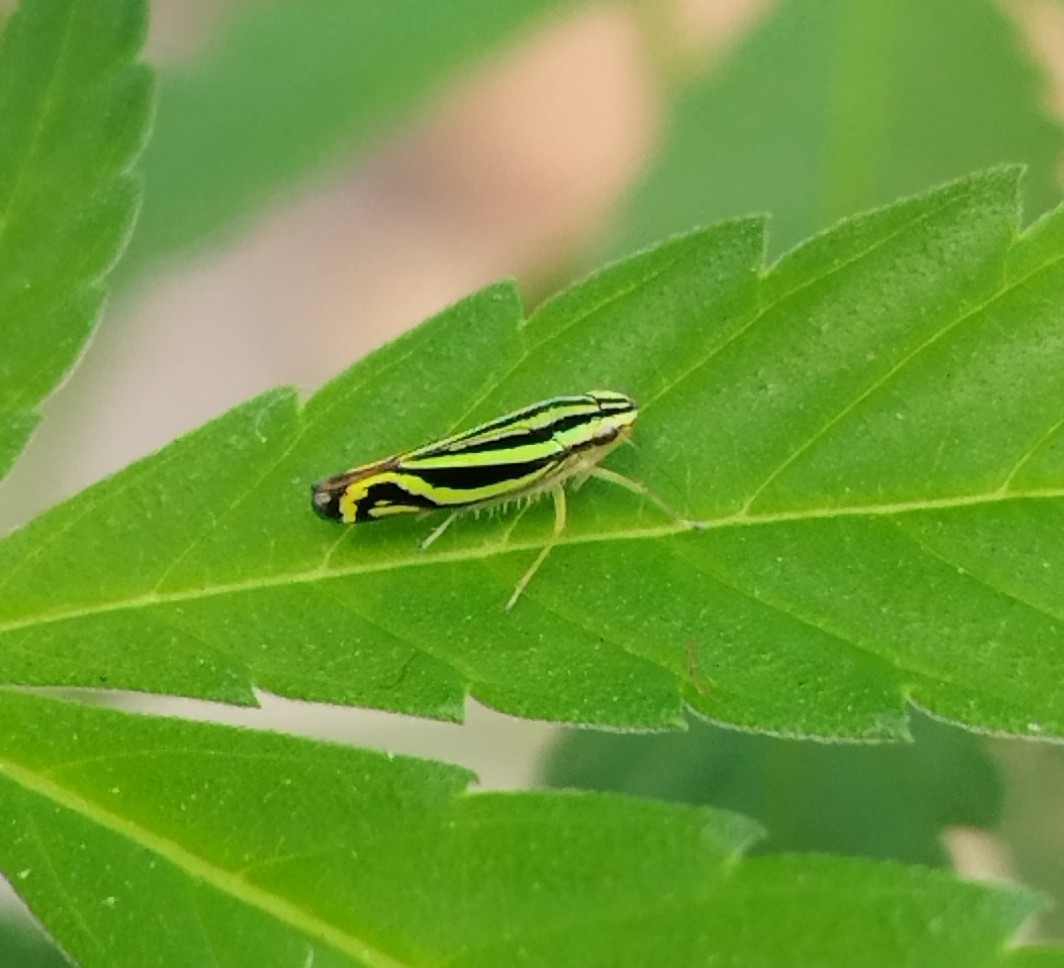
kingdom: Animalia
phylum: Arthropoda
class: Insecta
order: Hemiptera
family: Cicadellidae
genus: Sibovia
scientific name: Sibovia sagata
